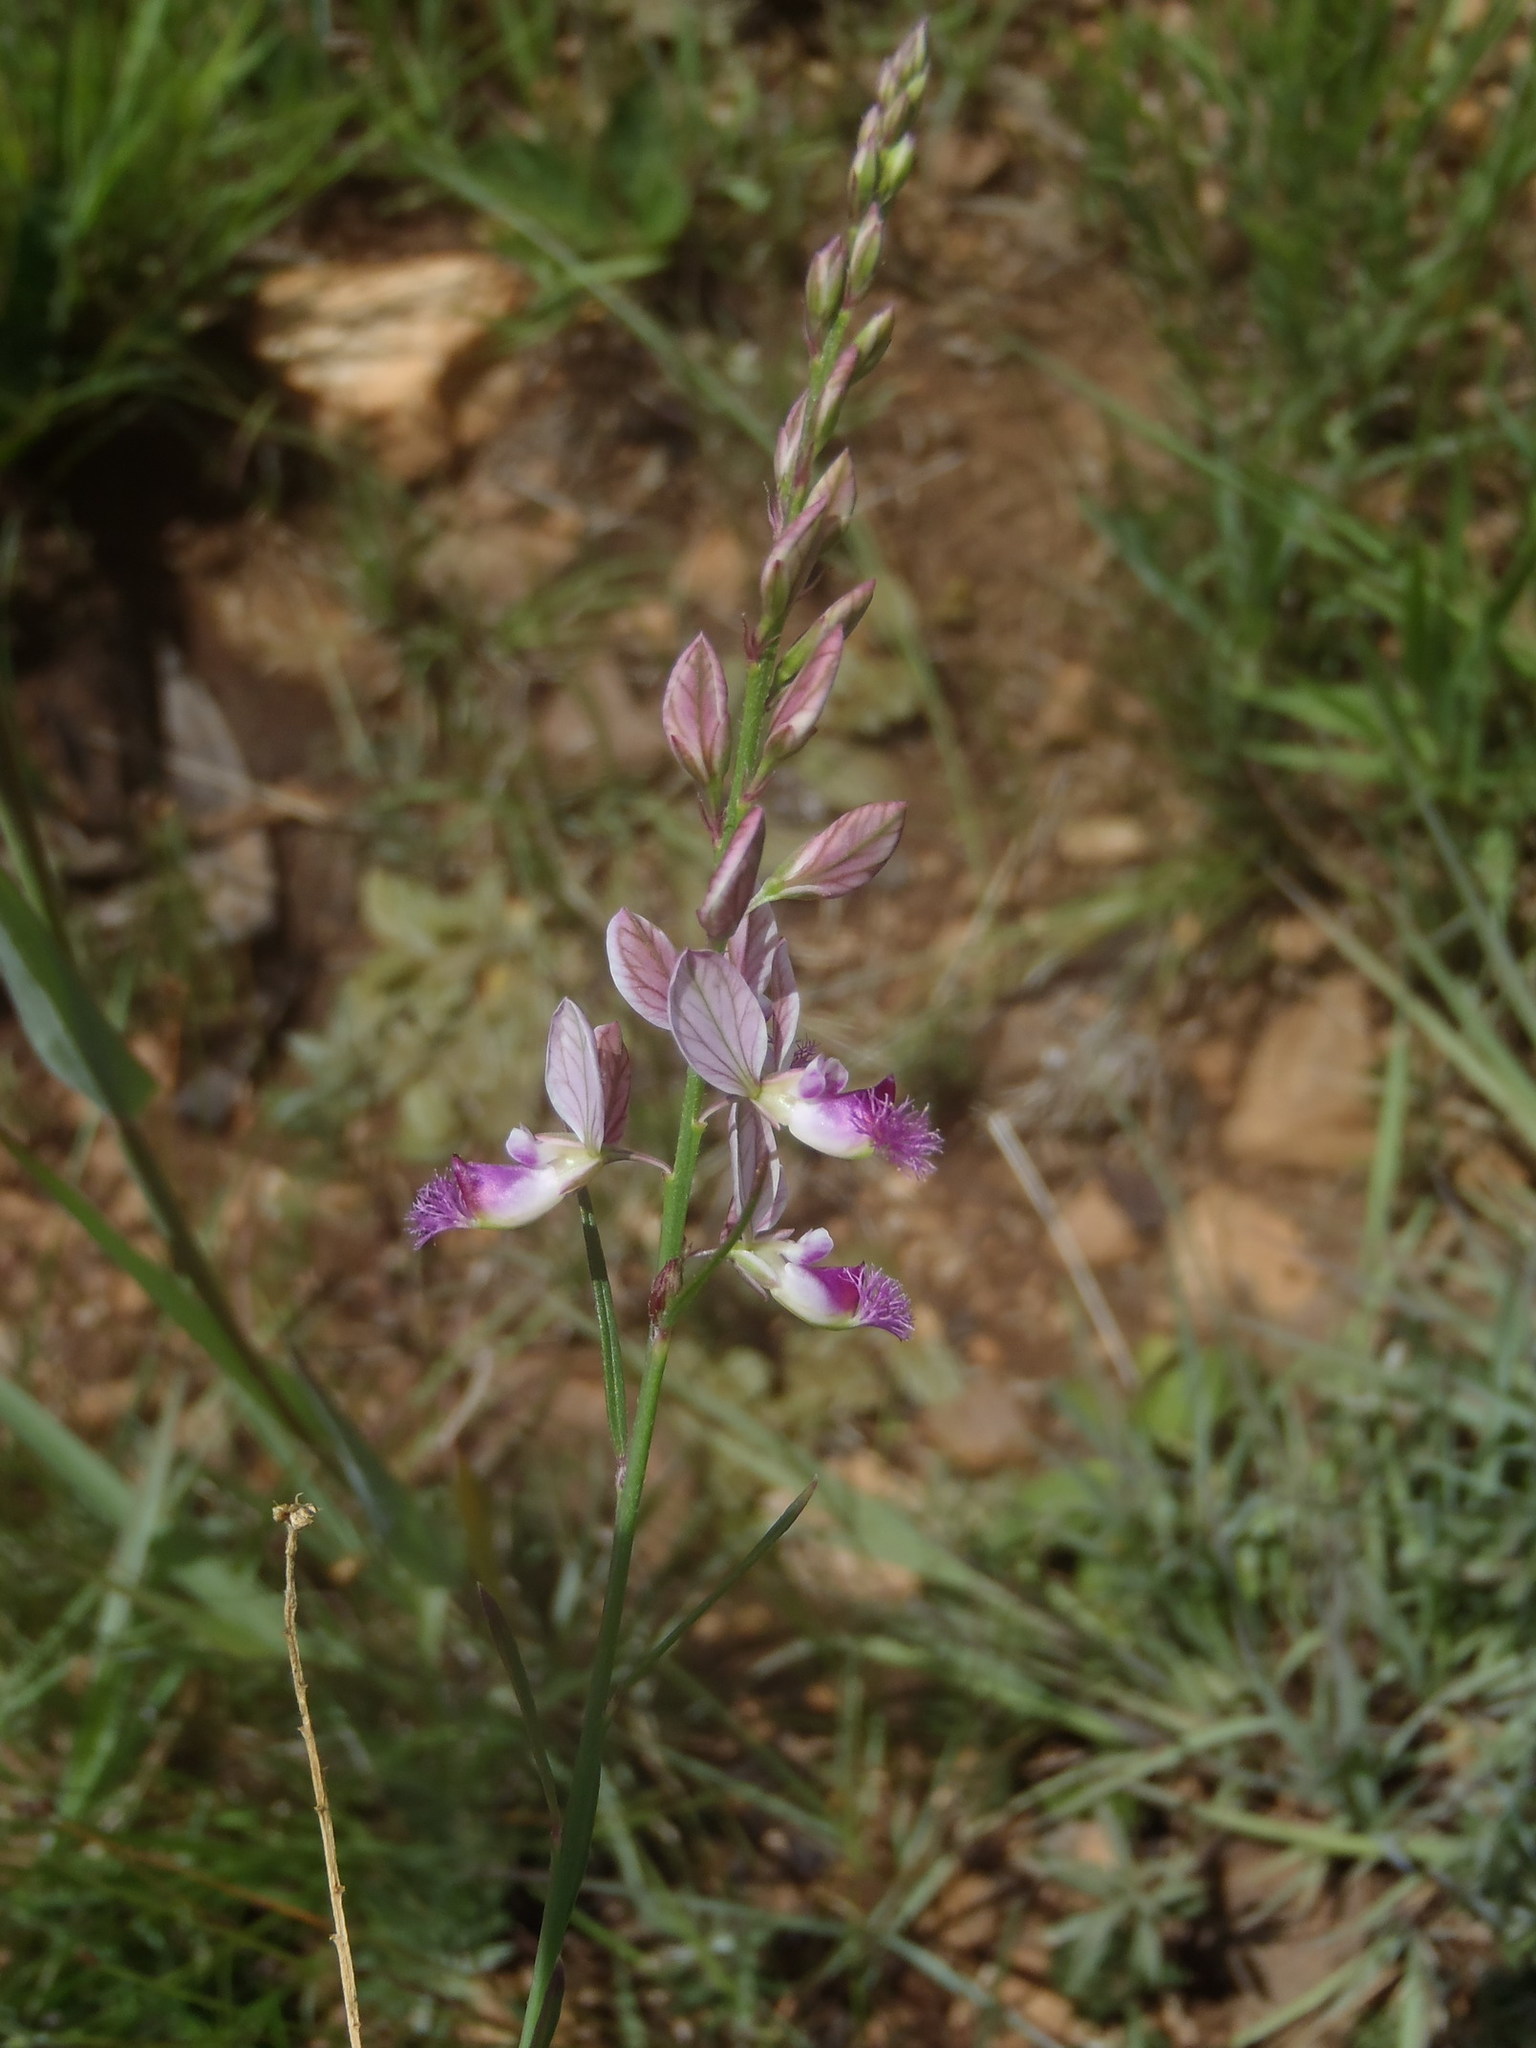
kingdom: Plantae
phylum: Tracheophyta
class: Magnoliopsida
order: Fabales
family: Polygalaceae
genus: Polygala
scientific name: Polygala hottentotta
